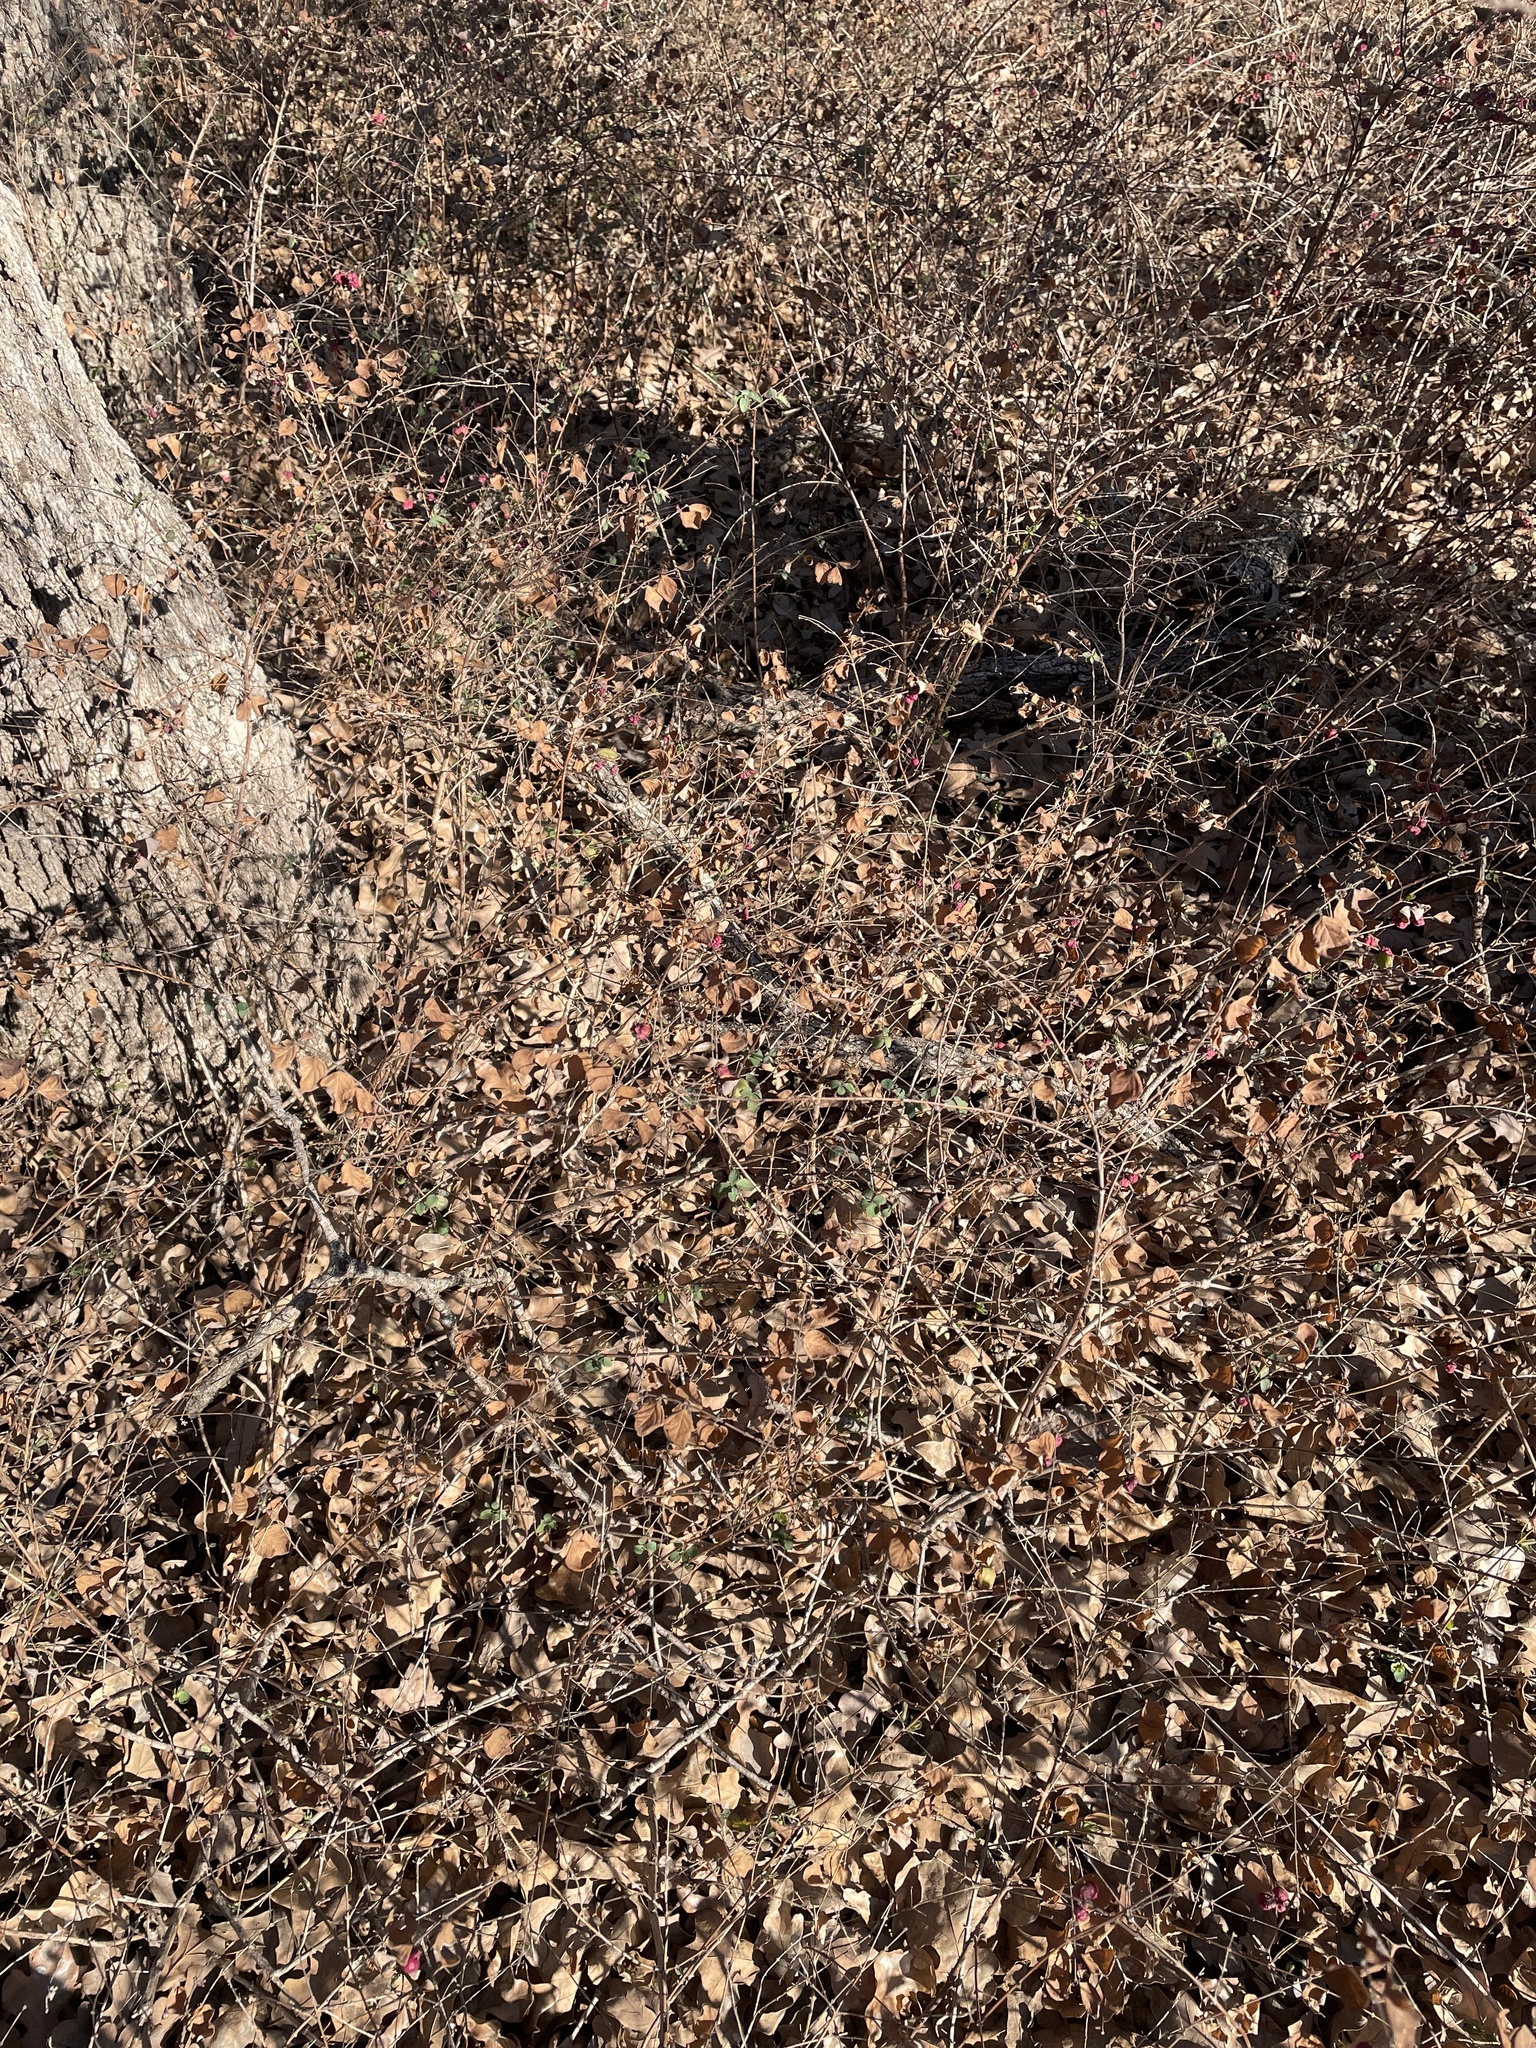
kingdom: Plantae
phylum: Tracheophyta
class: Magnoliopsida
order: Dipsacales
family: Caprifoliaceae
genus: Symphoricarpos
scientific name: Symphoricarpos orbiculatus
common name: Coralberry
